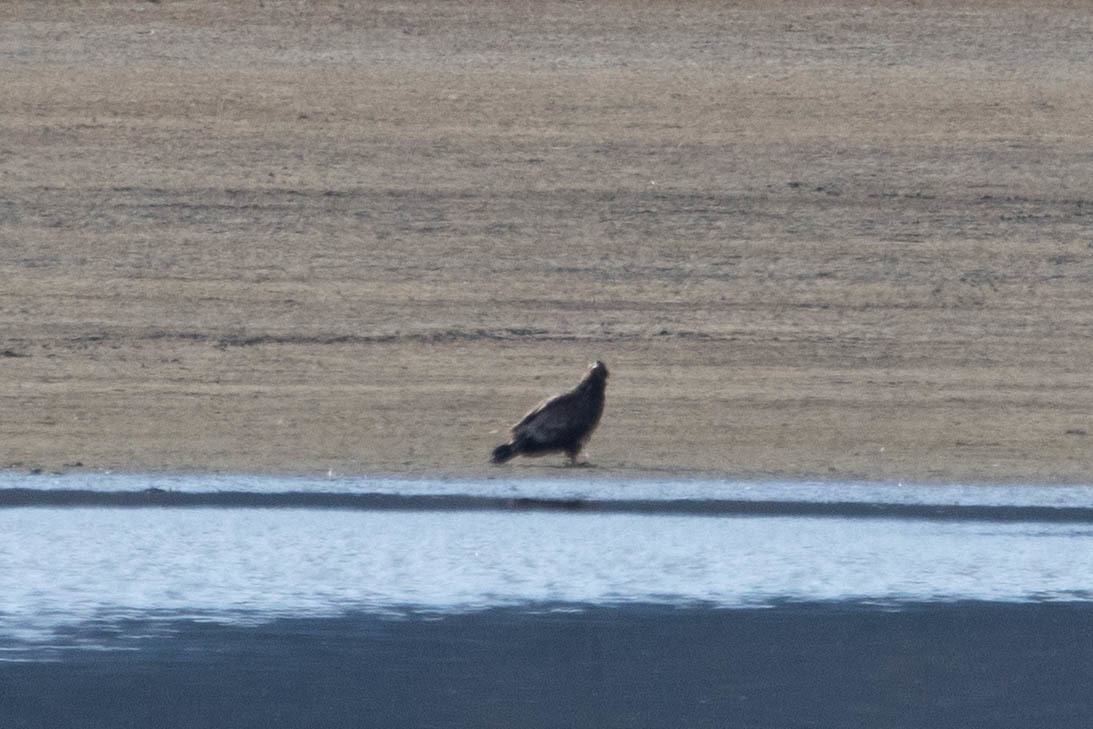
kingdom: Animalia
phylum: Chordata
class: Aves
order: Accipitriformes
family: Accipitridae
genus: Haliaeetus
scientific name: Haliaeetus leucocephalus
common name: Bald eagle
